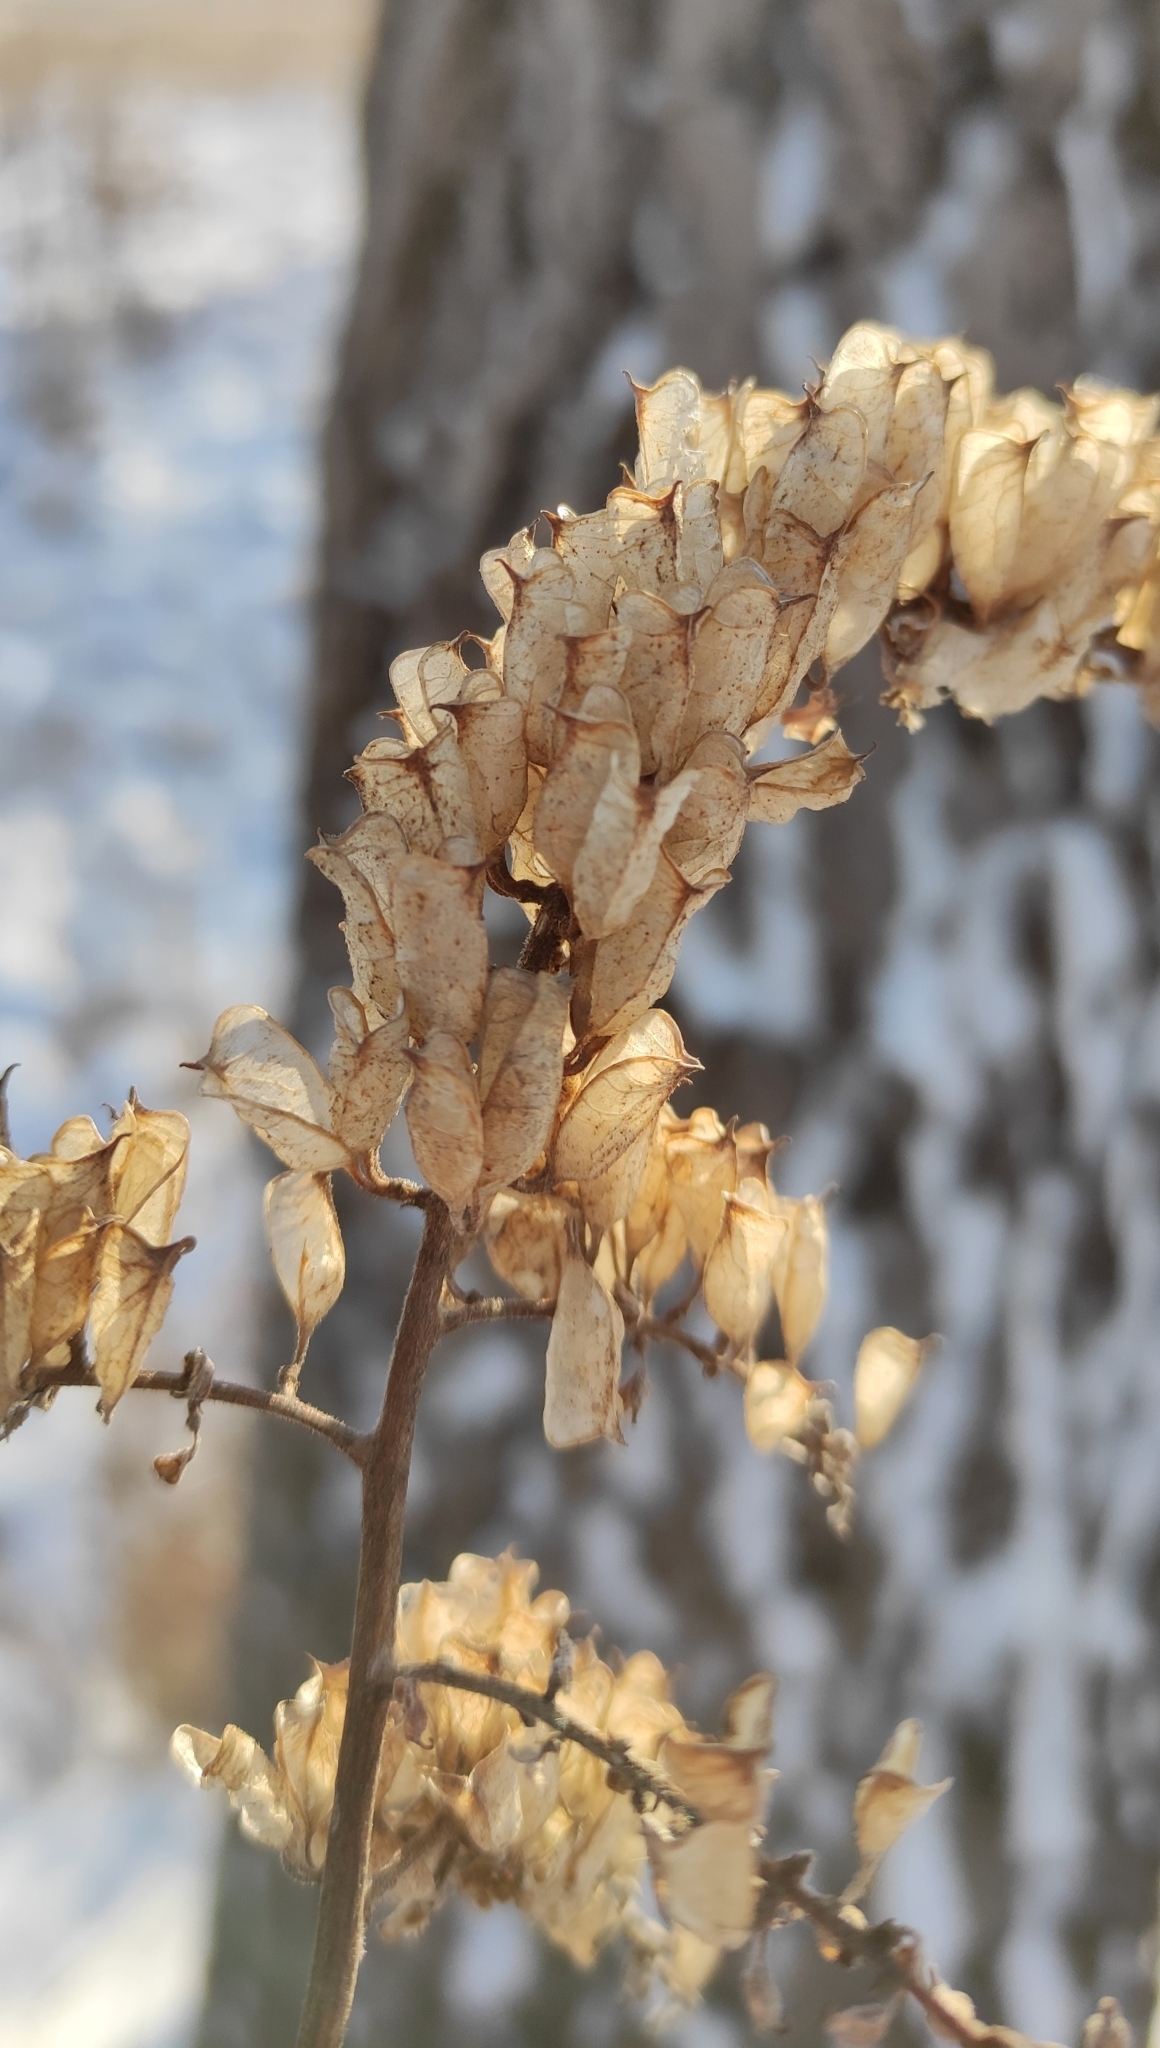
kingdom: Plantae
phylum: Tracheophyta
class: Magnoliopsida
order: Ranunculales
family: Ranunculaceae
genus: Actaea
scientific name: Actaea cimicifuga
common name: Chinese cimicifuga
